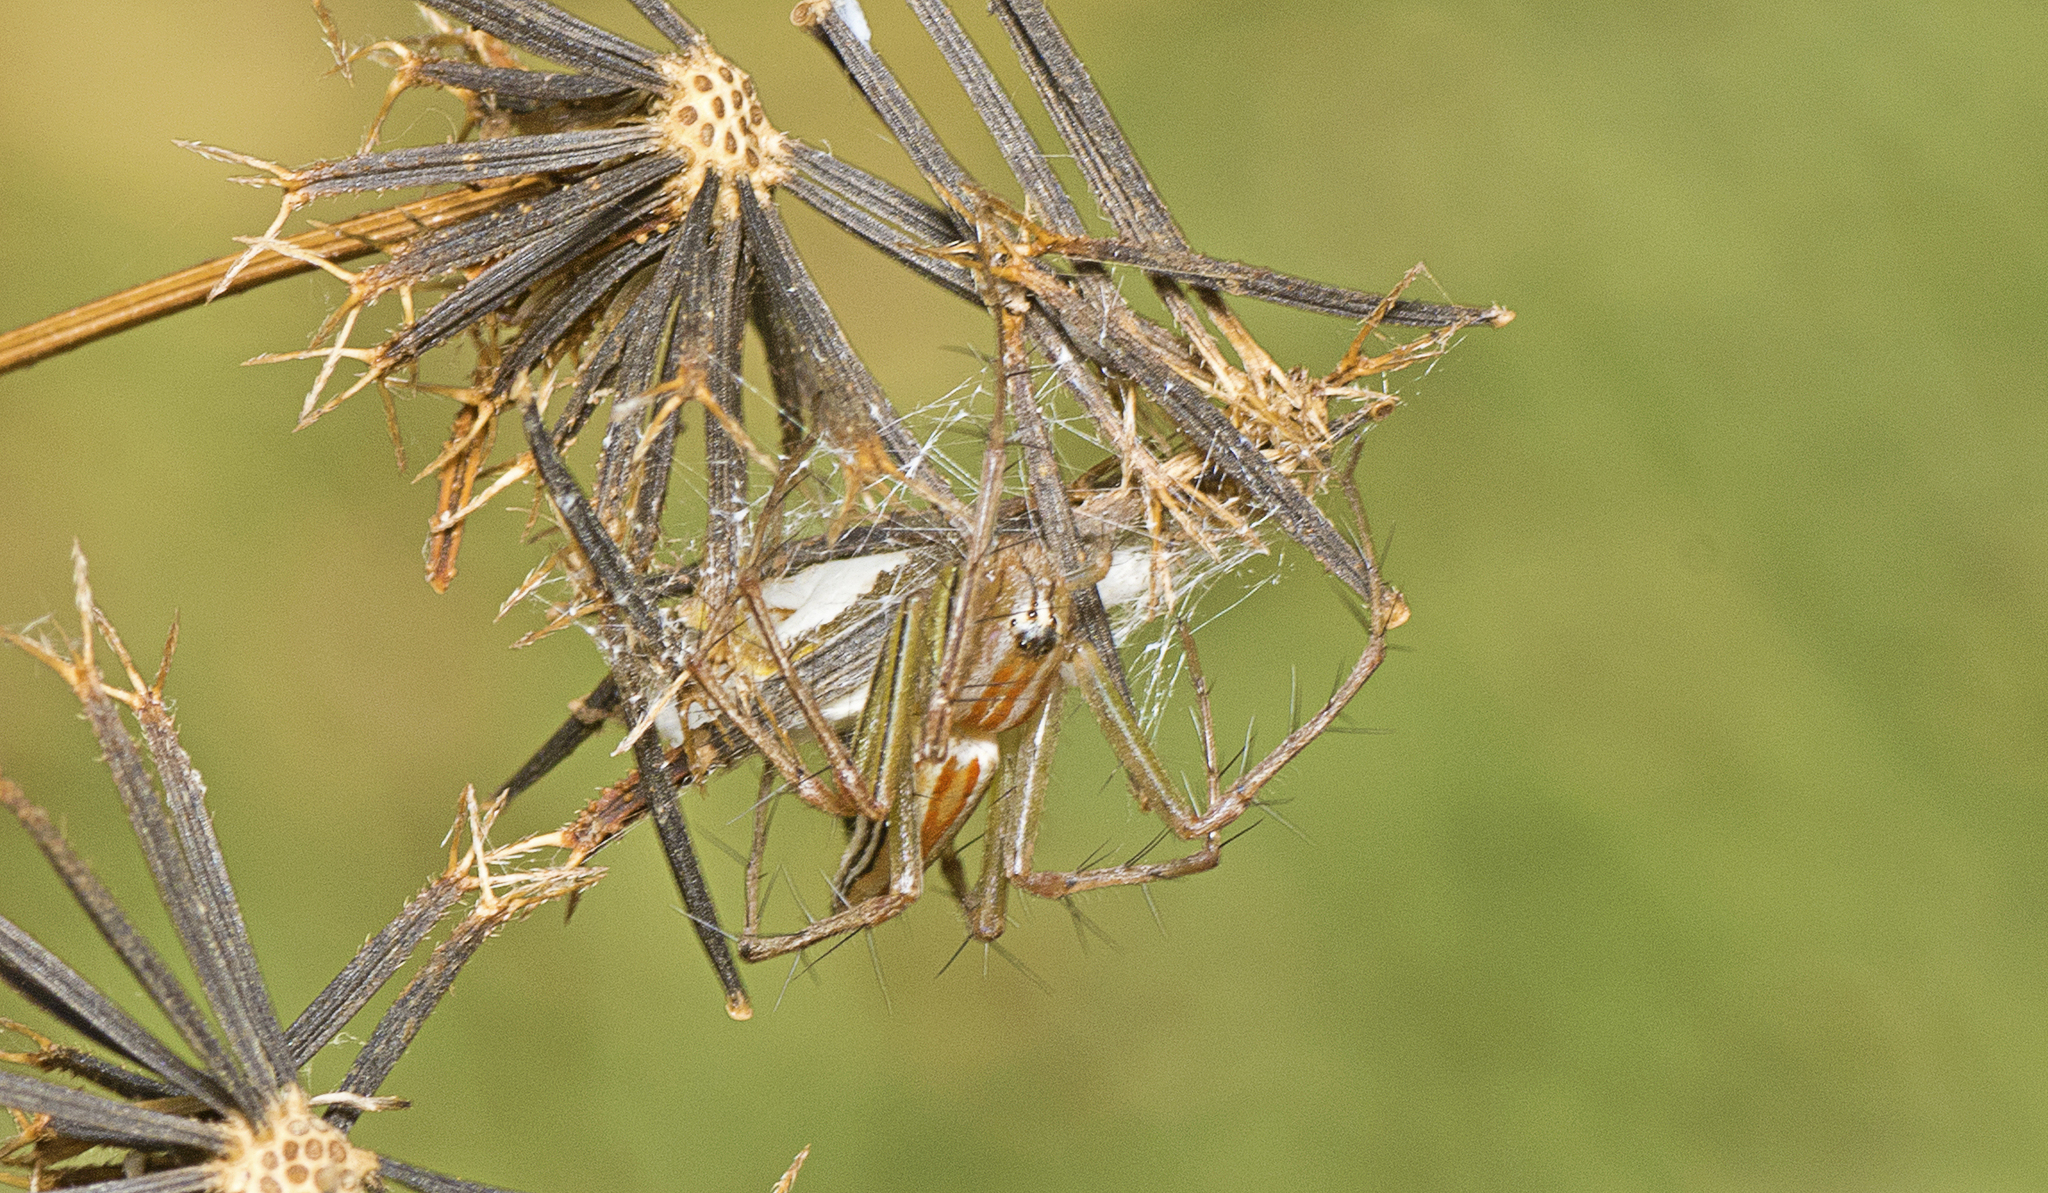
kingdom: Animalia
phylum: Arthropoda
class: Arachnida
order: Araneae
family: Oxyopidae
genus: Oxyopes
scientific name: Oxyopes macilentus
